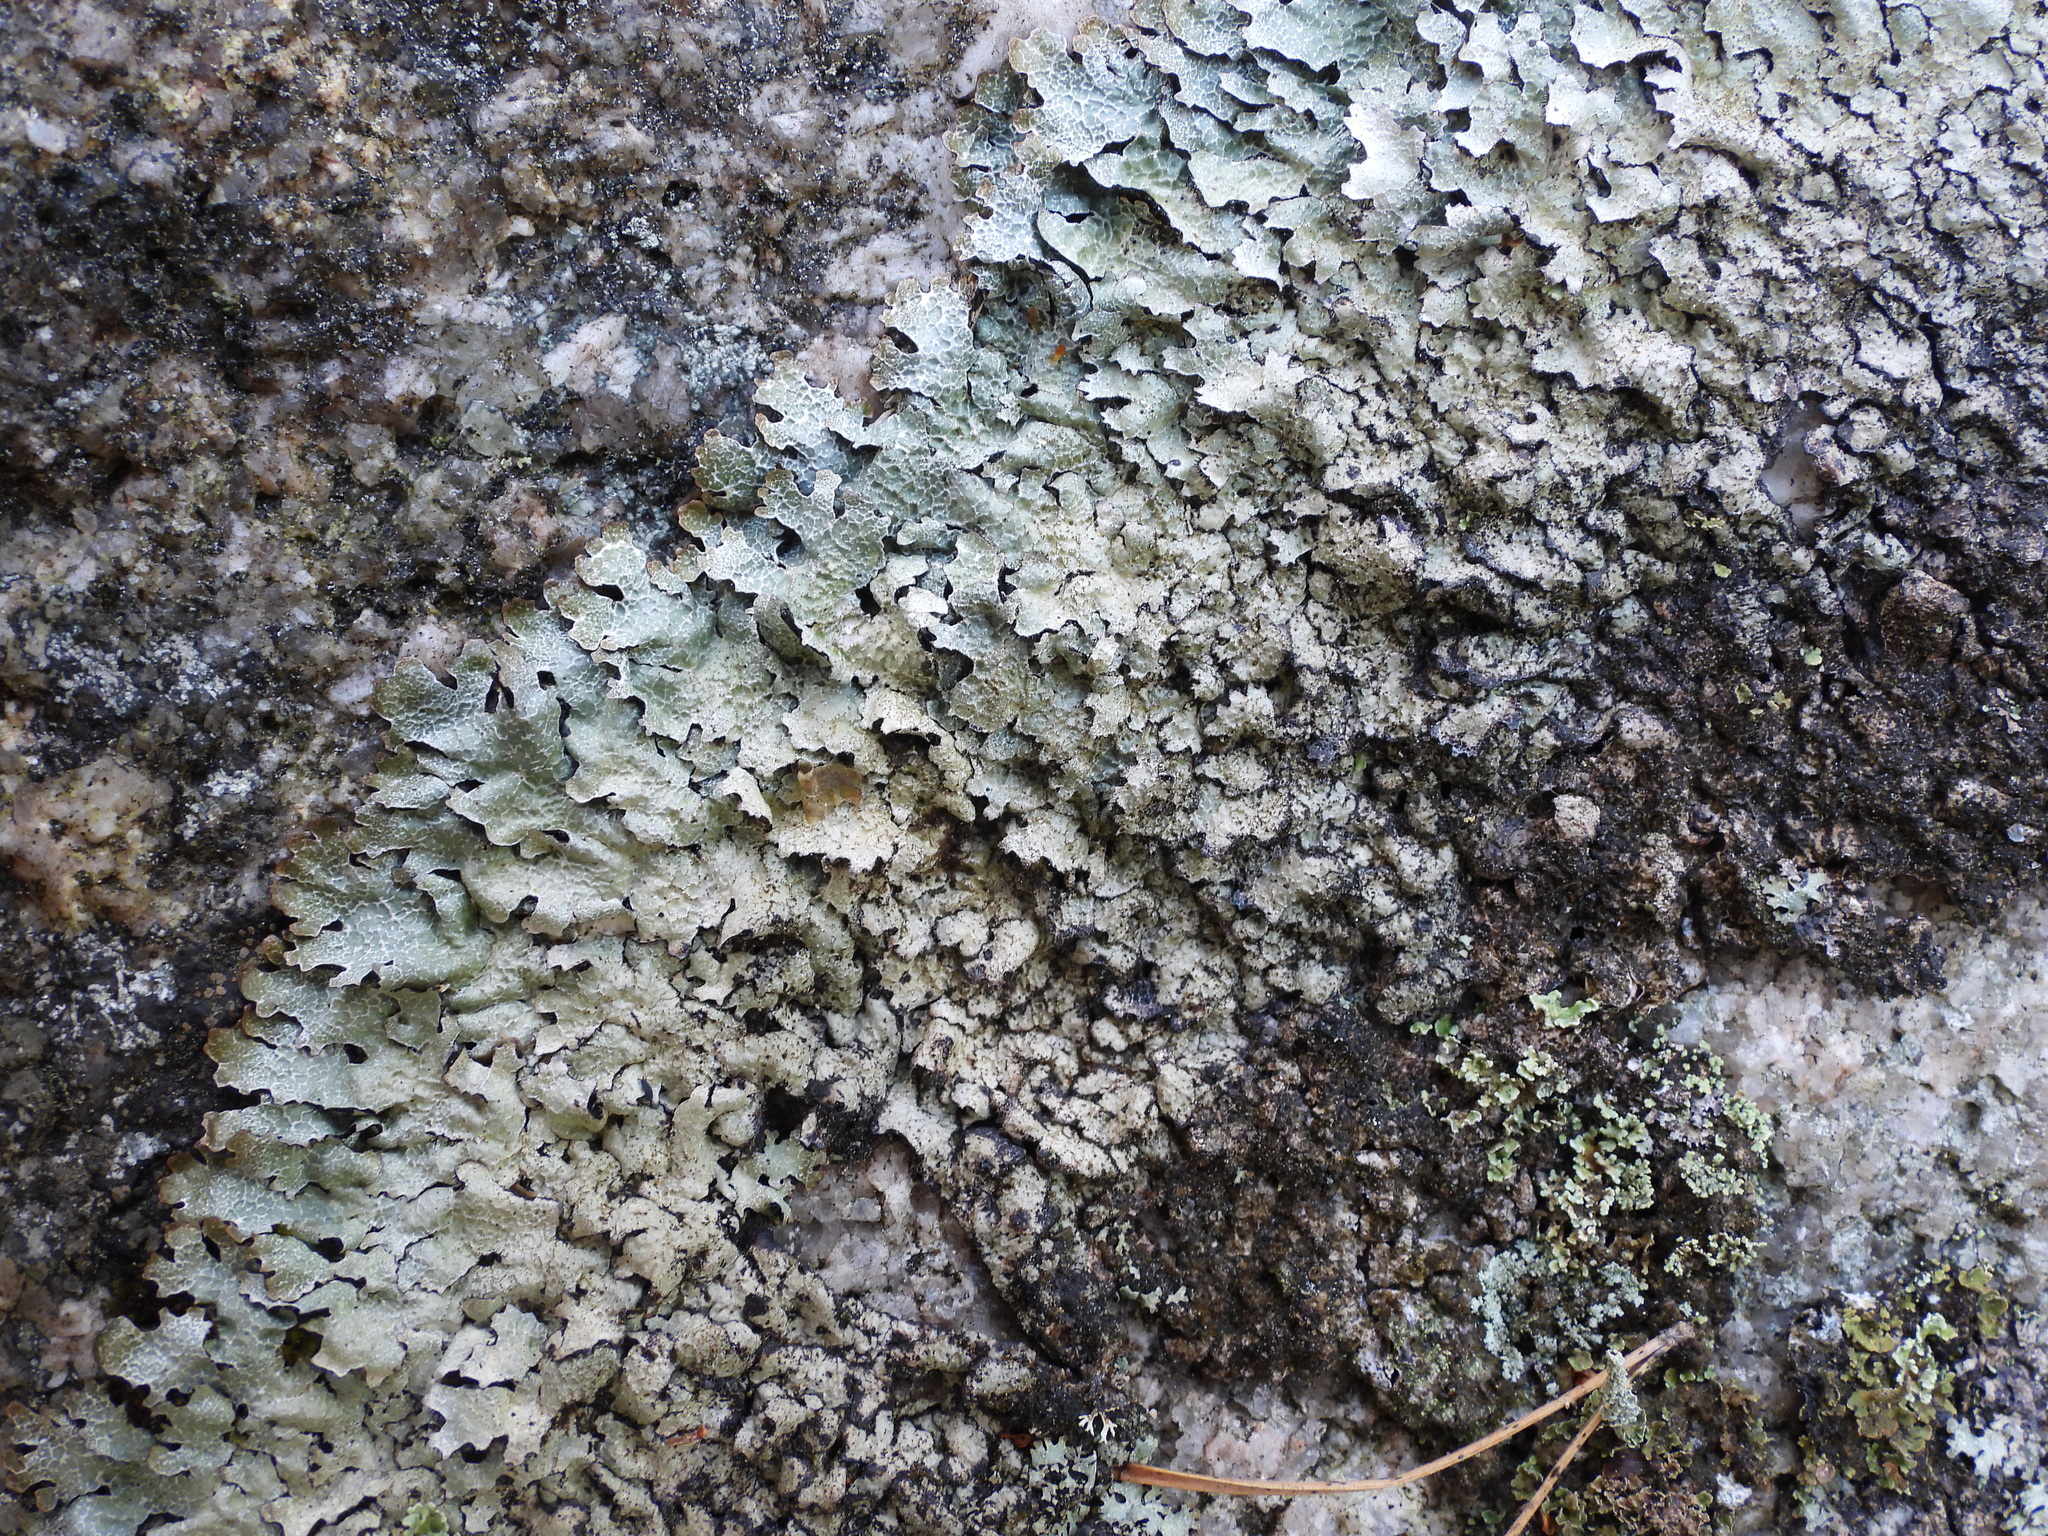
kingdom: Fungi
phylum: Ascomycota
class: Lecanoromycetes
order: Lecanorales
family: Parmeliaceae
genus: Parmelia
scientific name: Parmelia saxatilis
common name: Salted shield lichen
